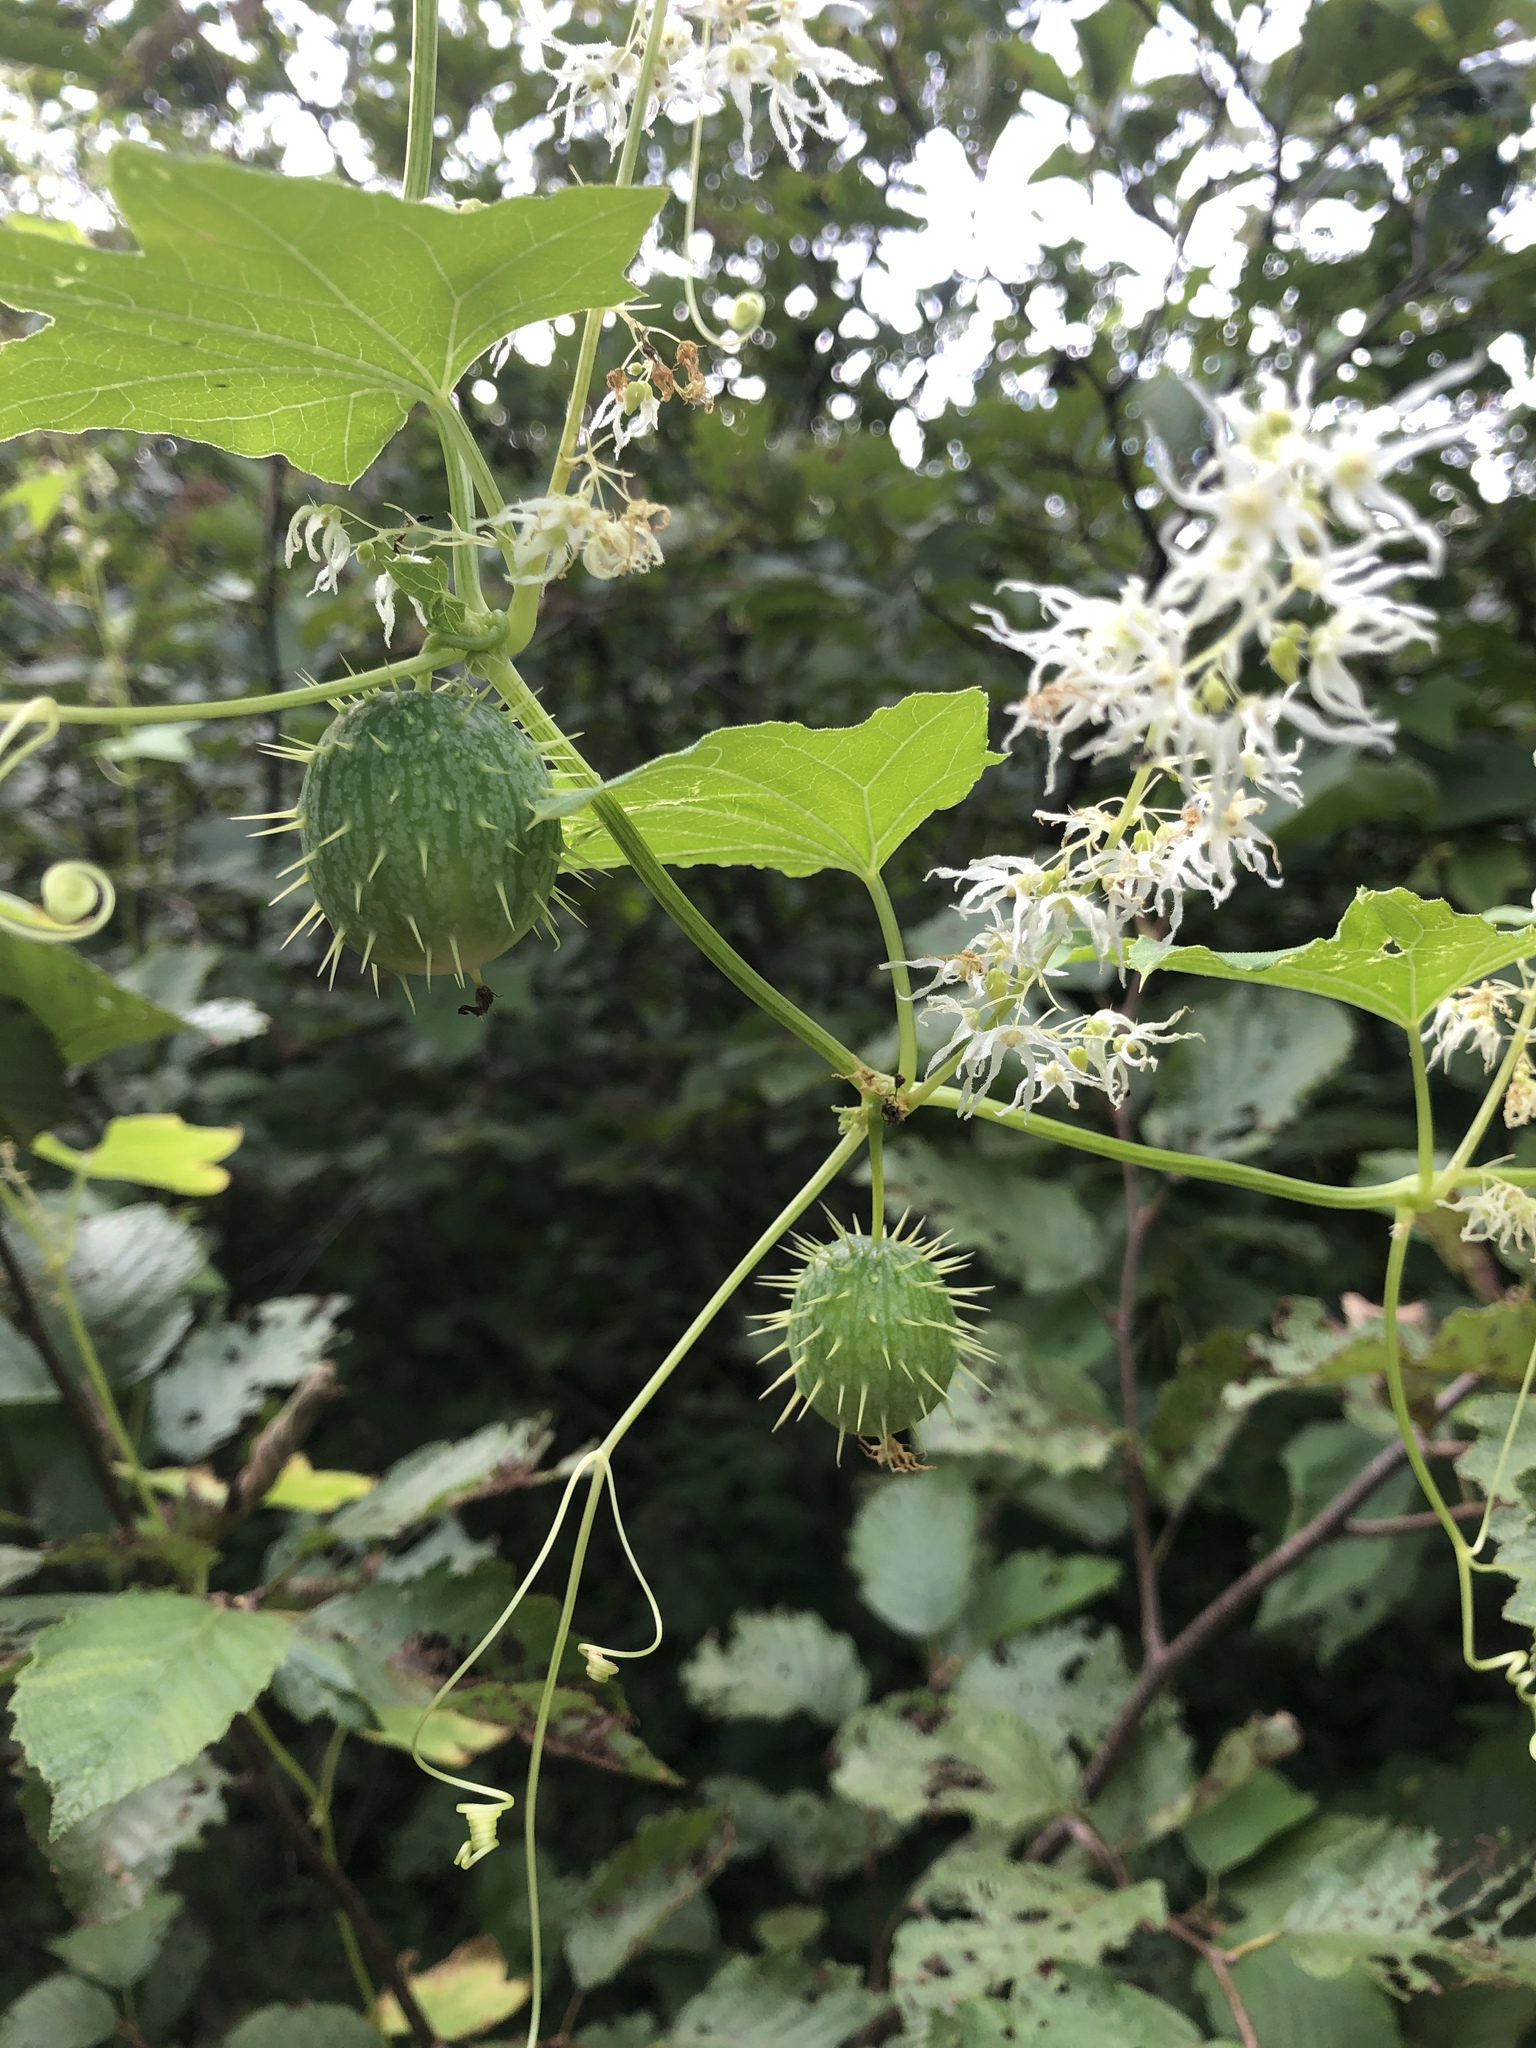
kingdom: Plantae
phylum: Tracheophyta
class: Magnoliopsida
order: Cucurbitales
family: Cucurbitaceae
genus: Echinocystis
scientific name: Echinocystis lobata
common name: Wild cucumber
